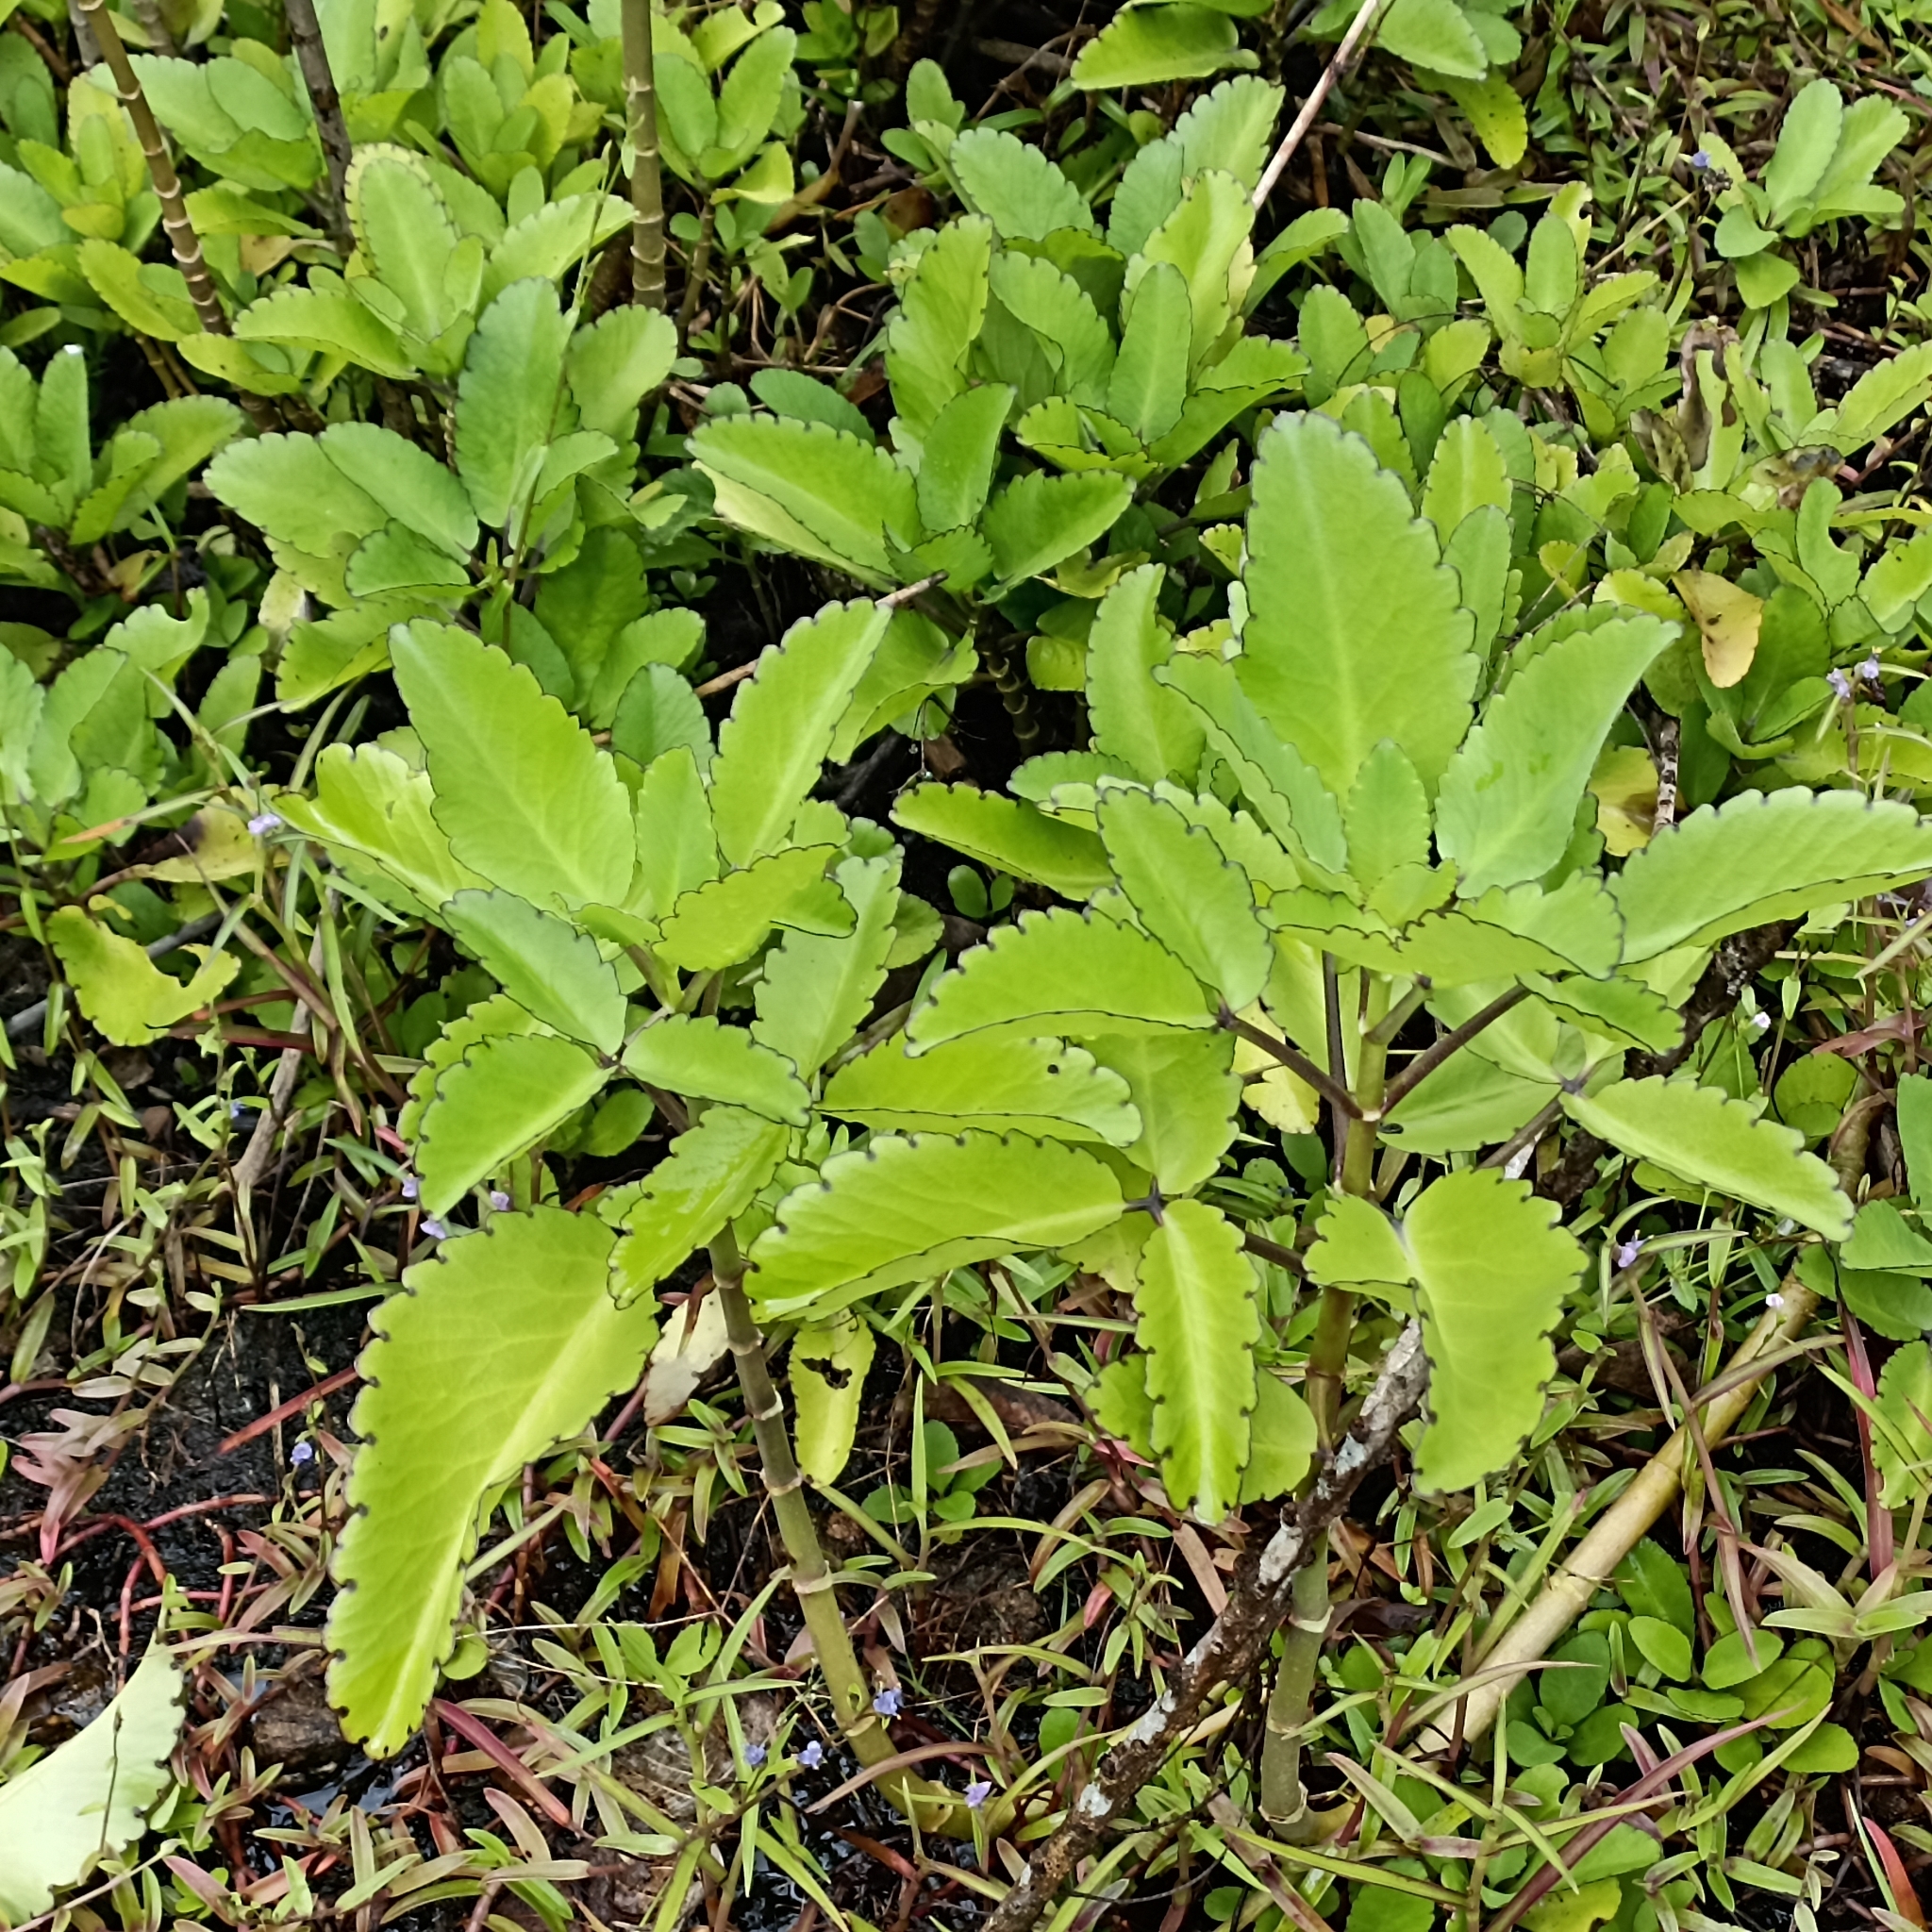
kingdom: Plantae
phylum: Tracheophyta
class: Magnoliopsida
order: Saxifragales
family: Crassulaceae
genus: Kalanchoe
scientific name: Kalanchoe pinnata
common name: Cathedral bells
